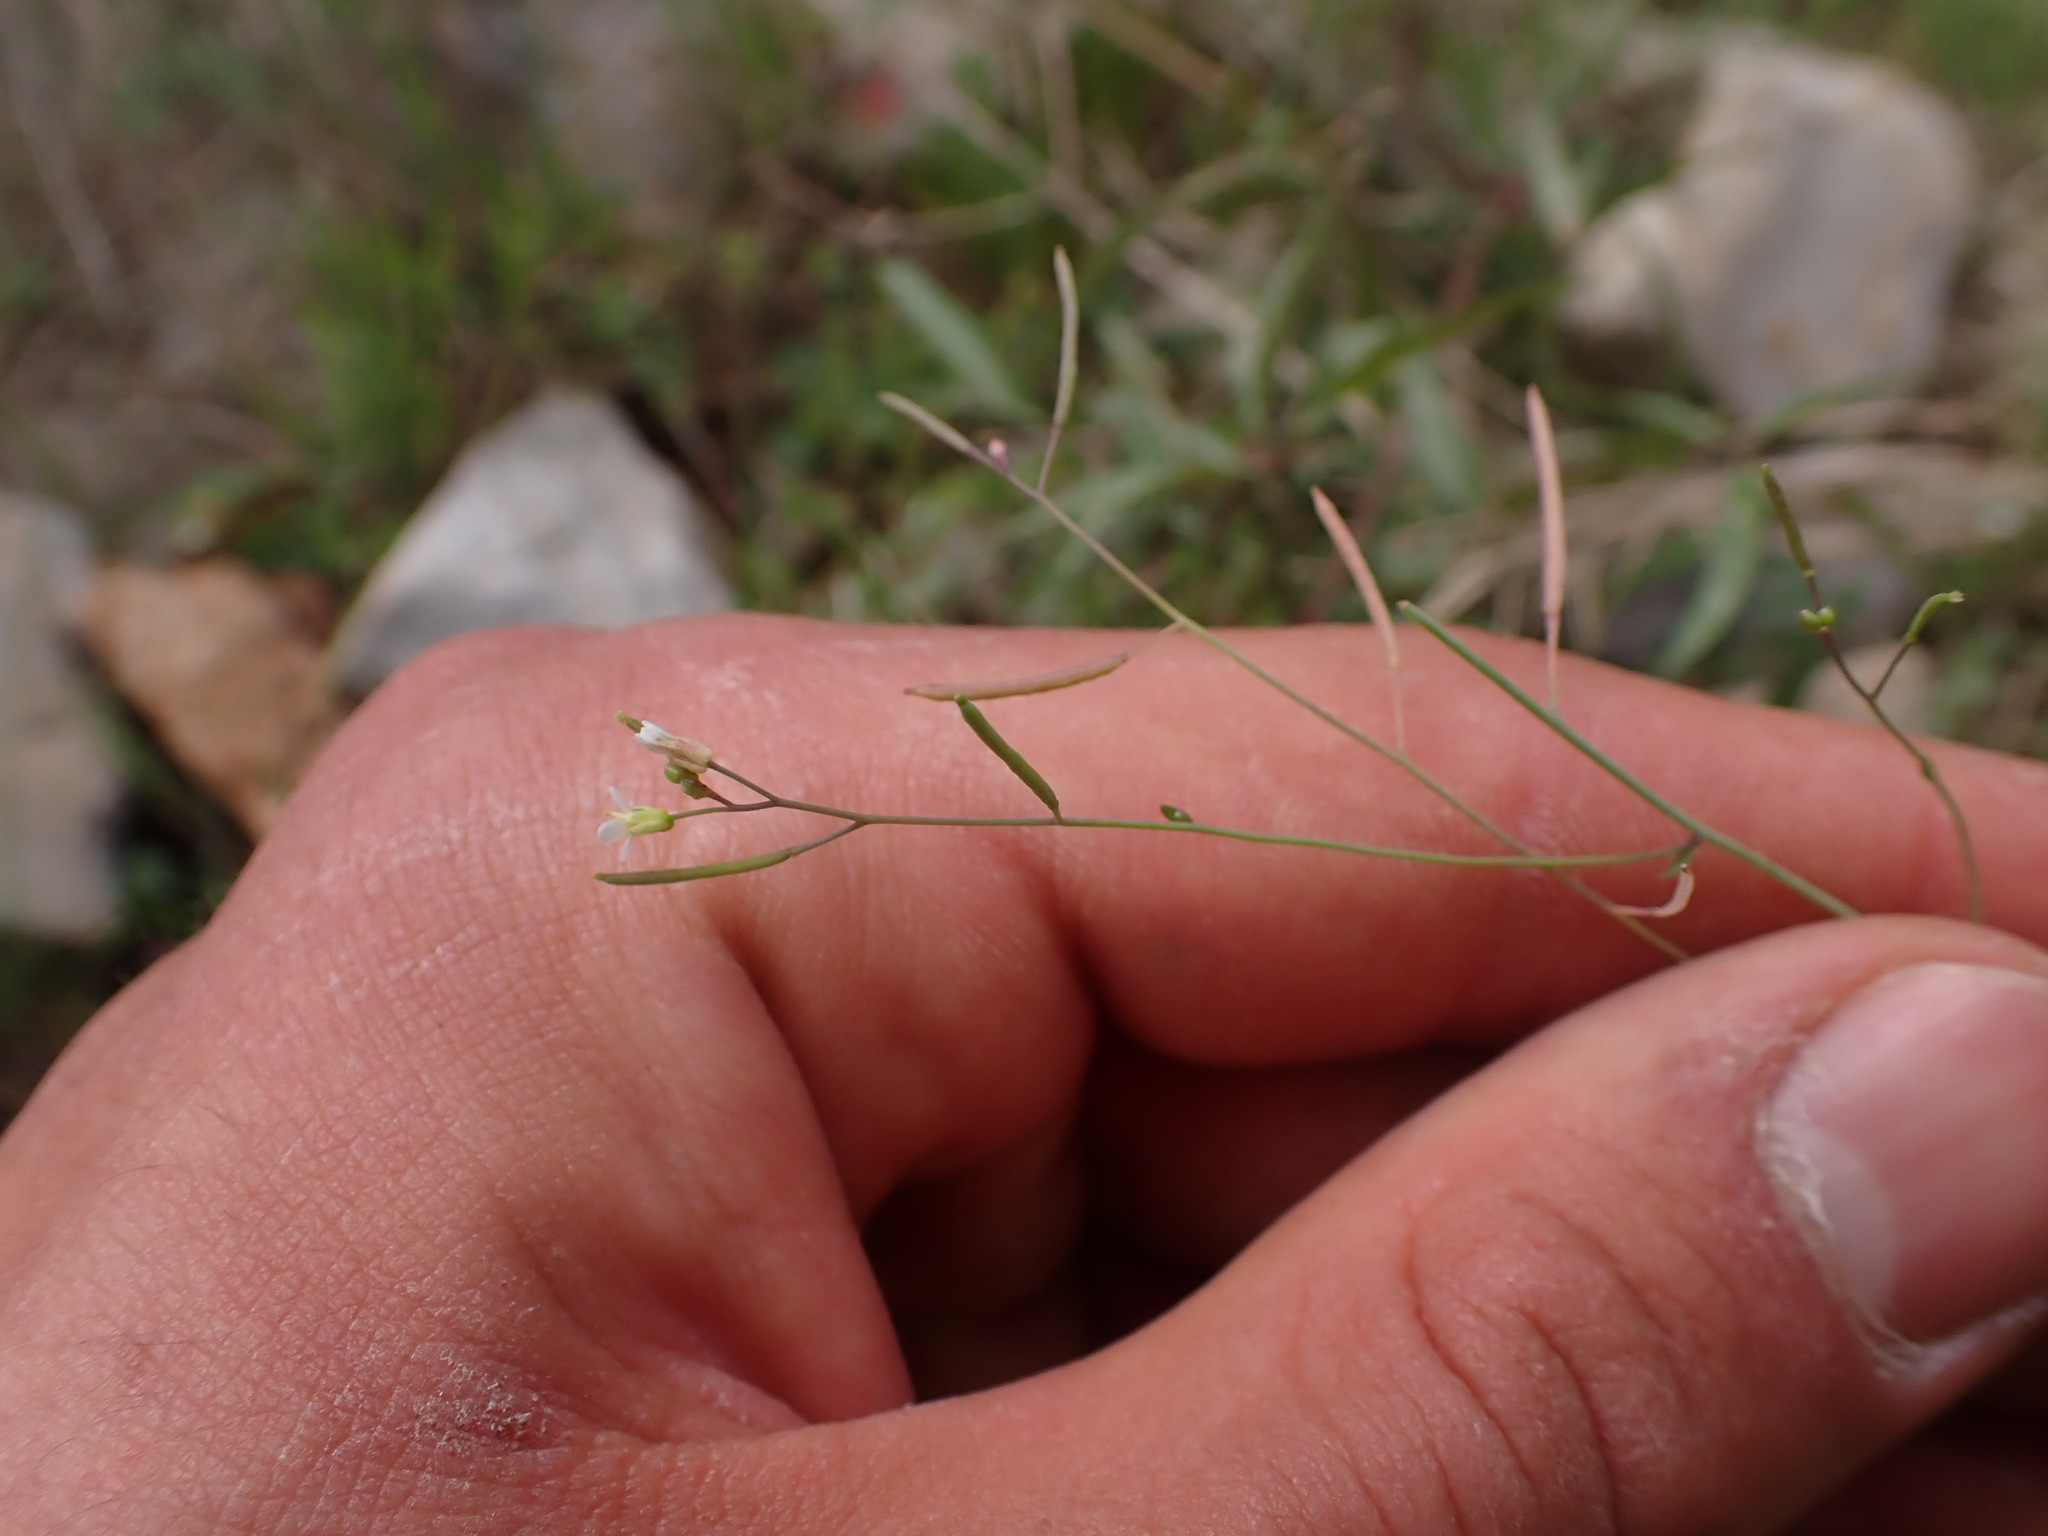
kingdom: Plantae
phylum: Tracheophyta
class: Magnoliopsida
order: Brassicales
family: Brassicaceae
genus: Arabidopsis
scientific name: Arabidopsis thaliana
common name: Thale cress
